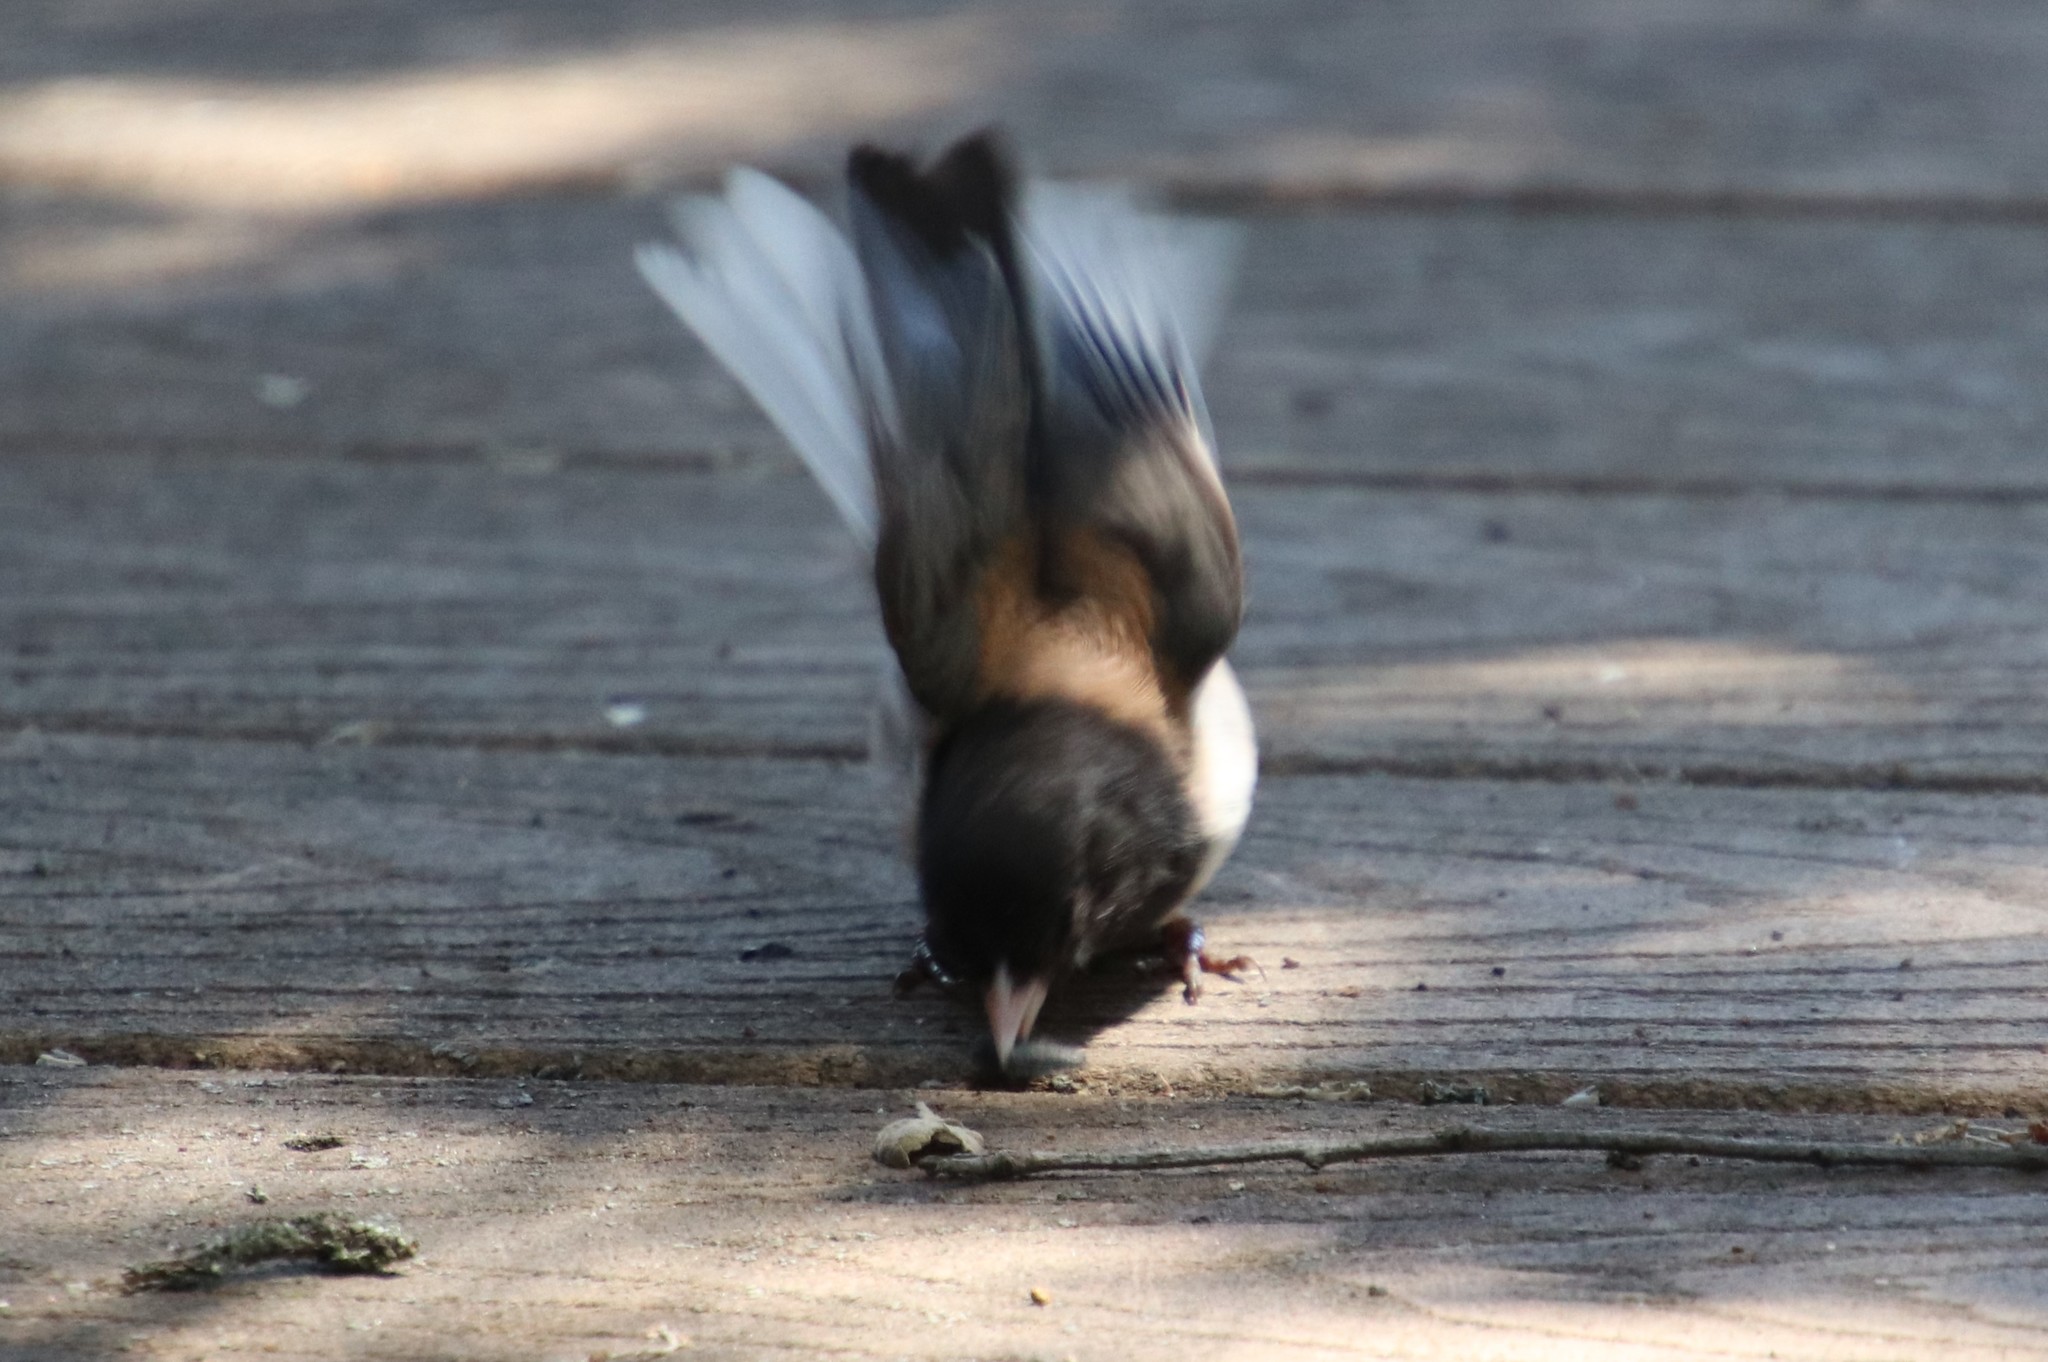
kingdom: Animalia
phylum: Chordata
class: Aves
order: Passeriformes
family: Passerellidae
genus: Junco
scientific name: Junco hyemalis
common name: Dark-eyed junco
